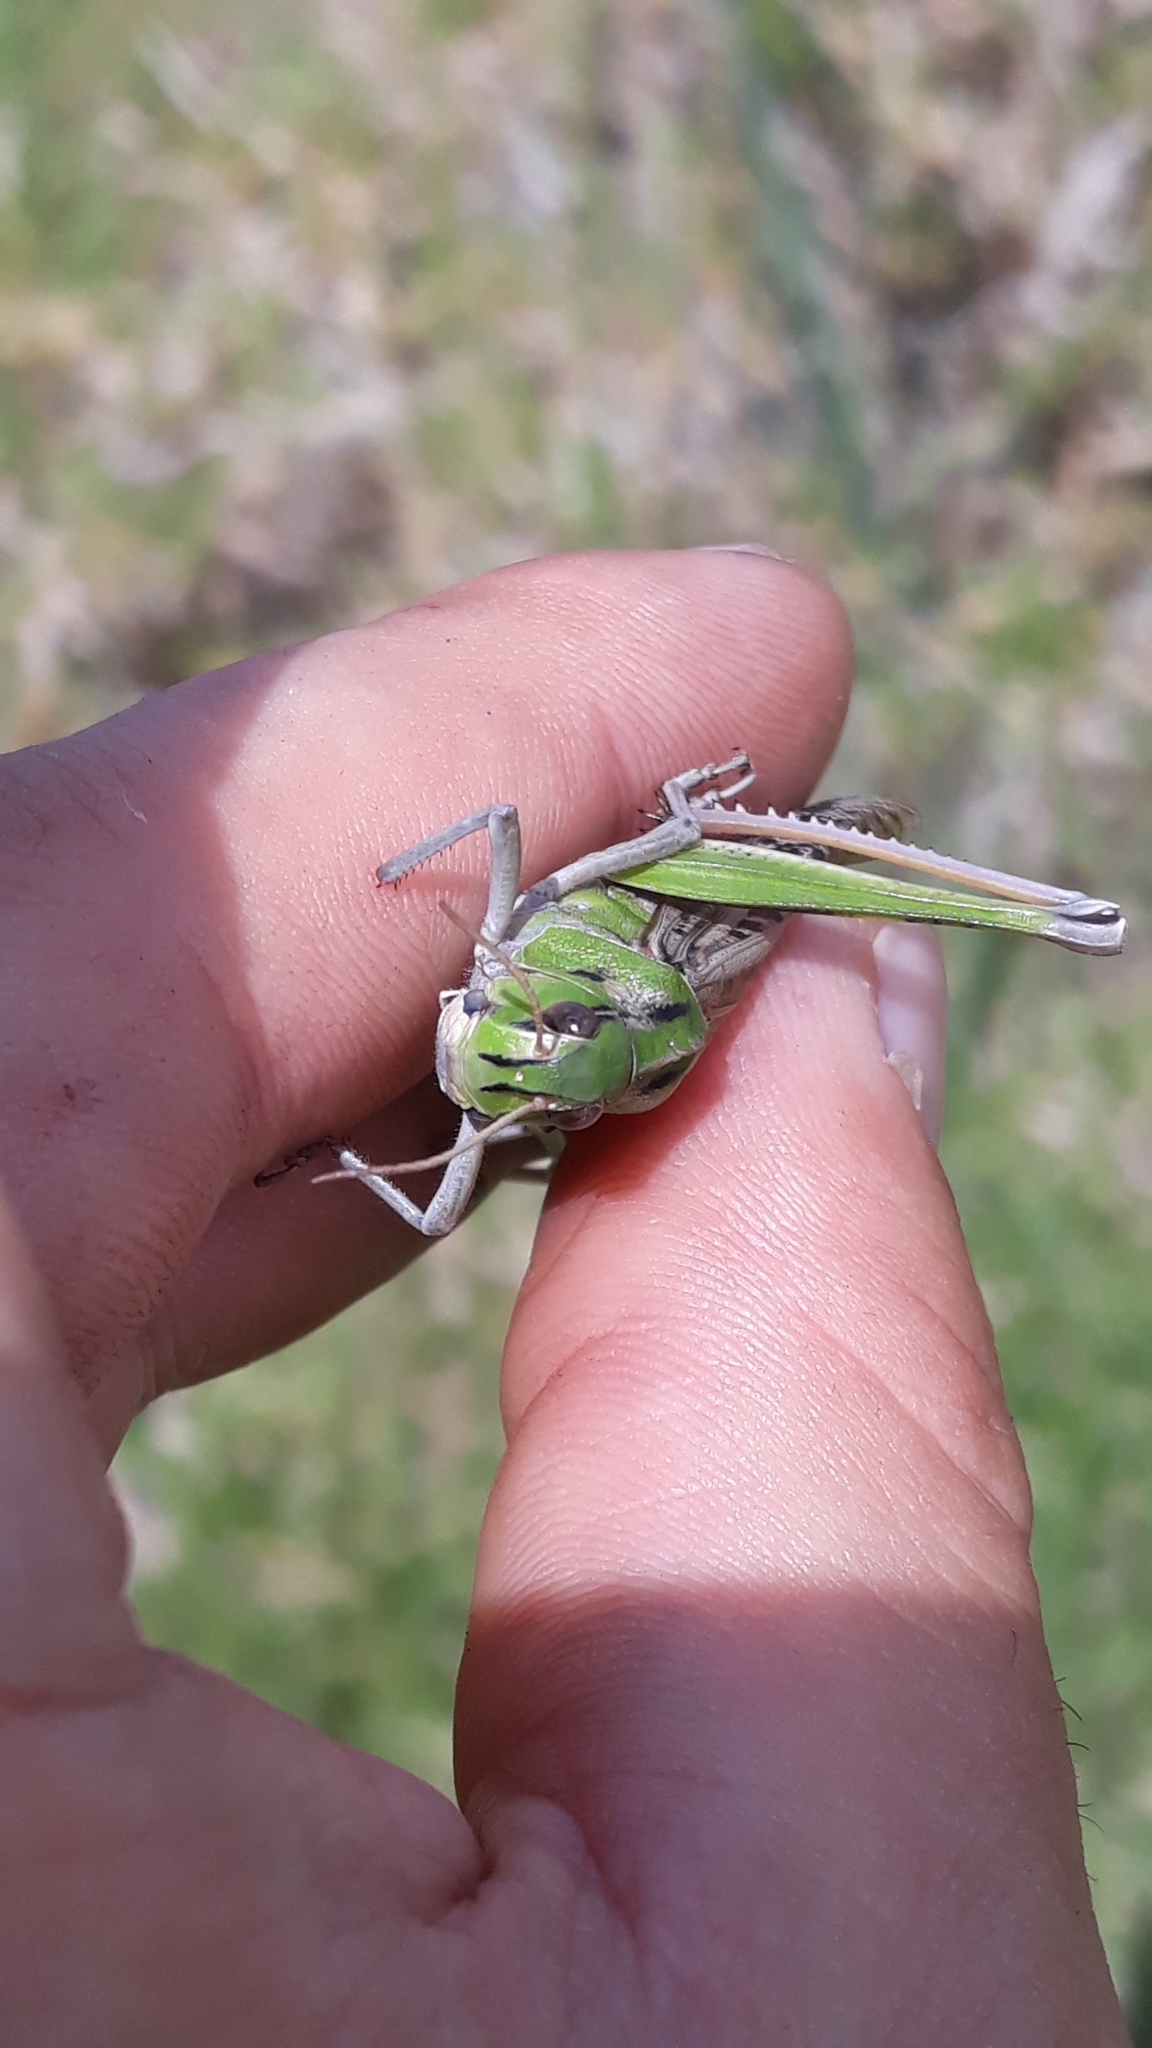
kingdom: Animalia
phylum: Arthropoda
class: Insecta
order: Orthoptera
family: Acrididae
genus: Locusta
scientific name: Locusta migratoria
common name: Migratory locust
